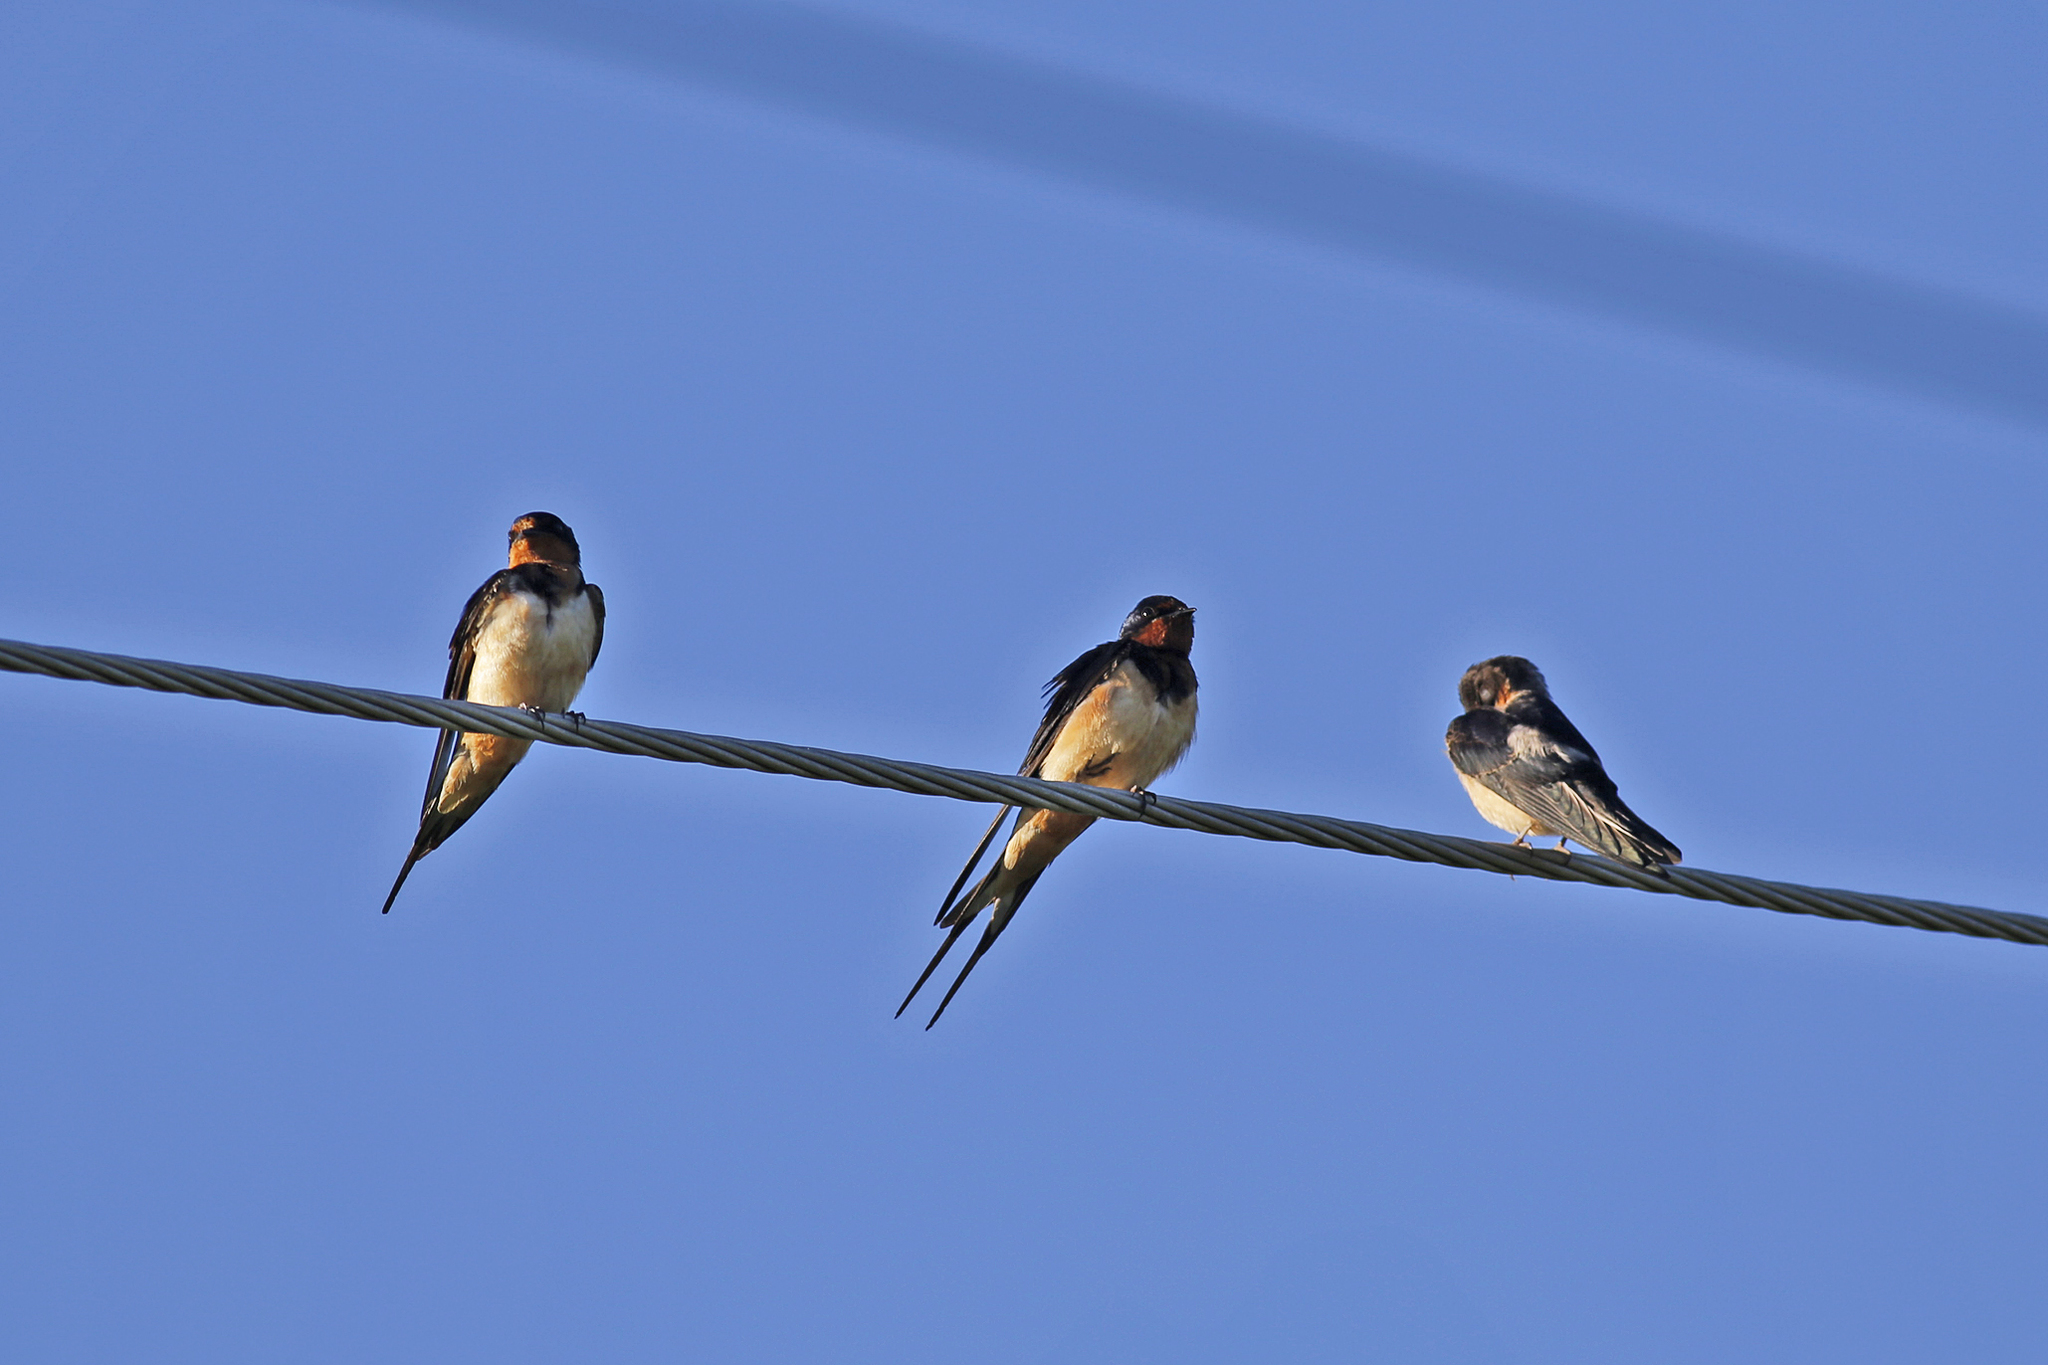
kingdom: Animalia
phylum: Chordata
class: Aves
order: Passeriformes
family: Hirundinidae
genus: Hirundo
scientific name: Hirundo rustica
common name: Barn swallow
